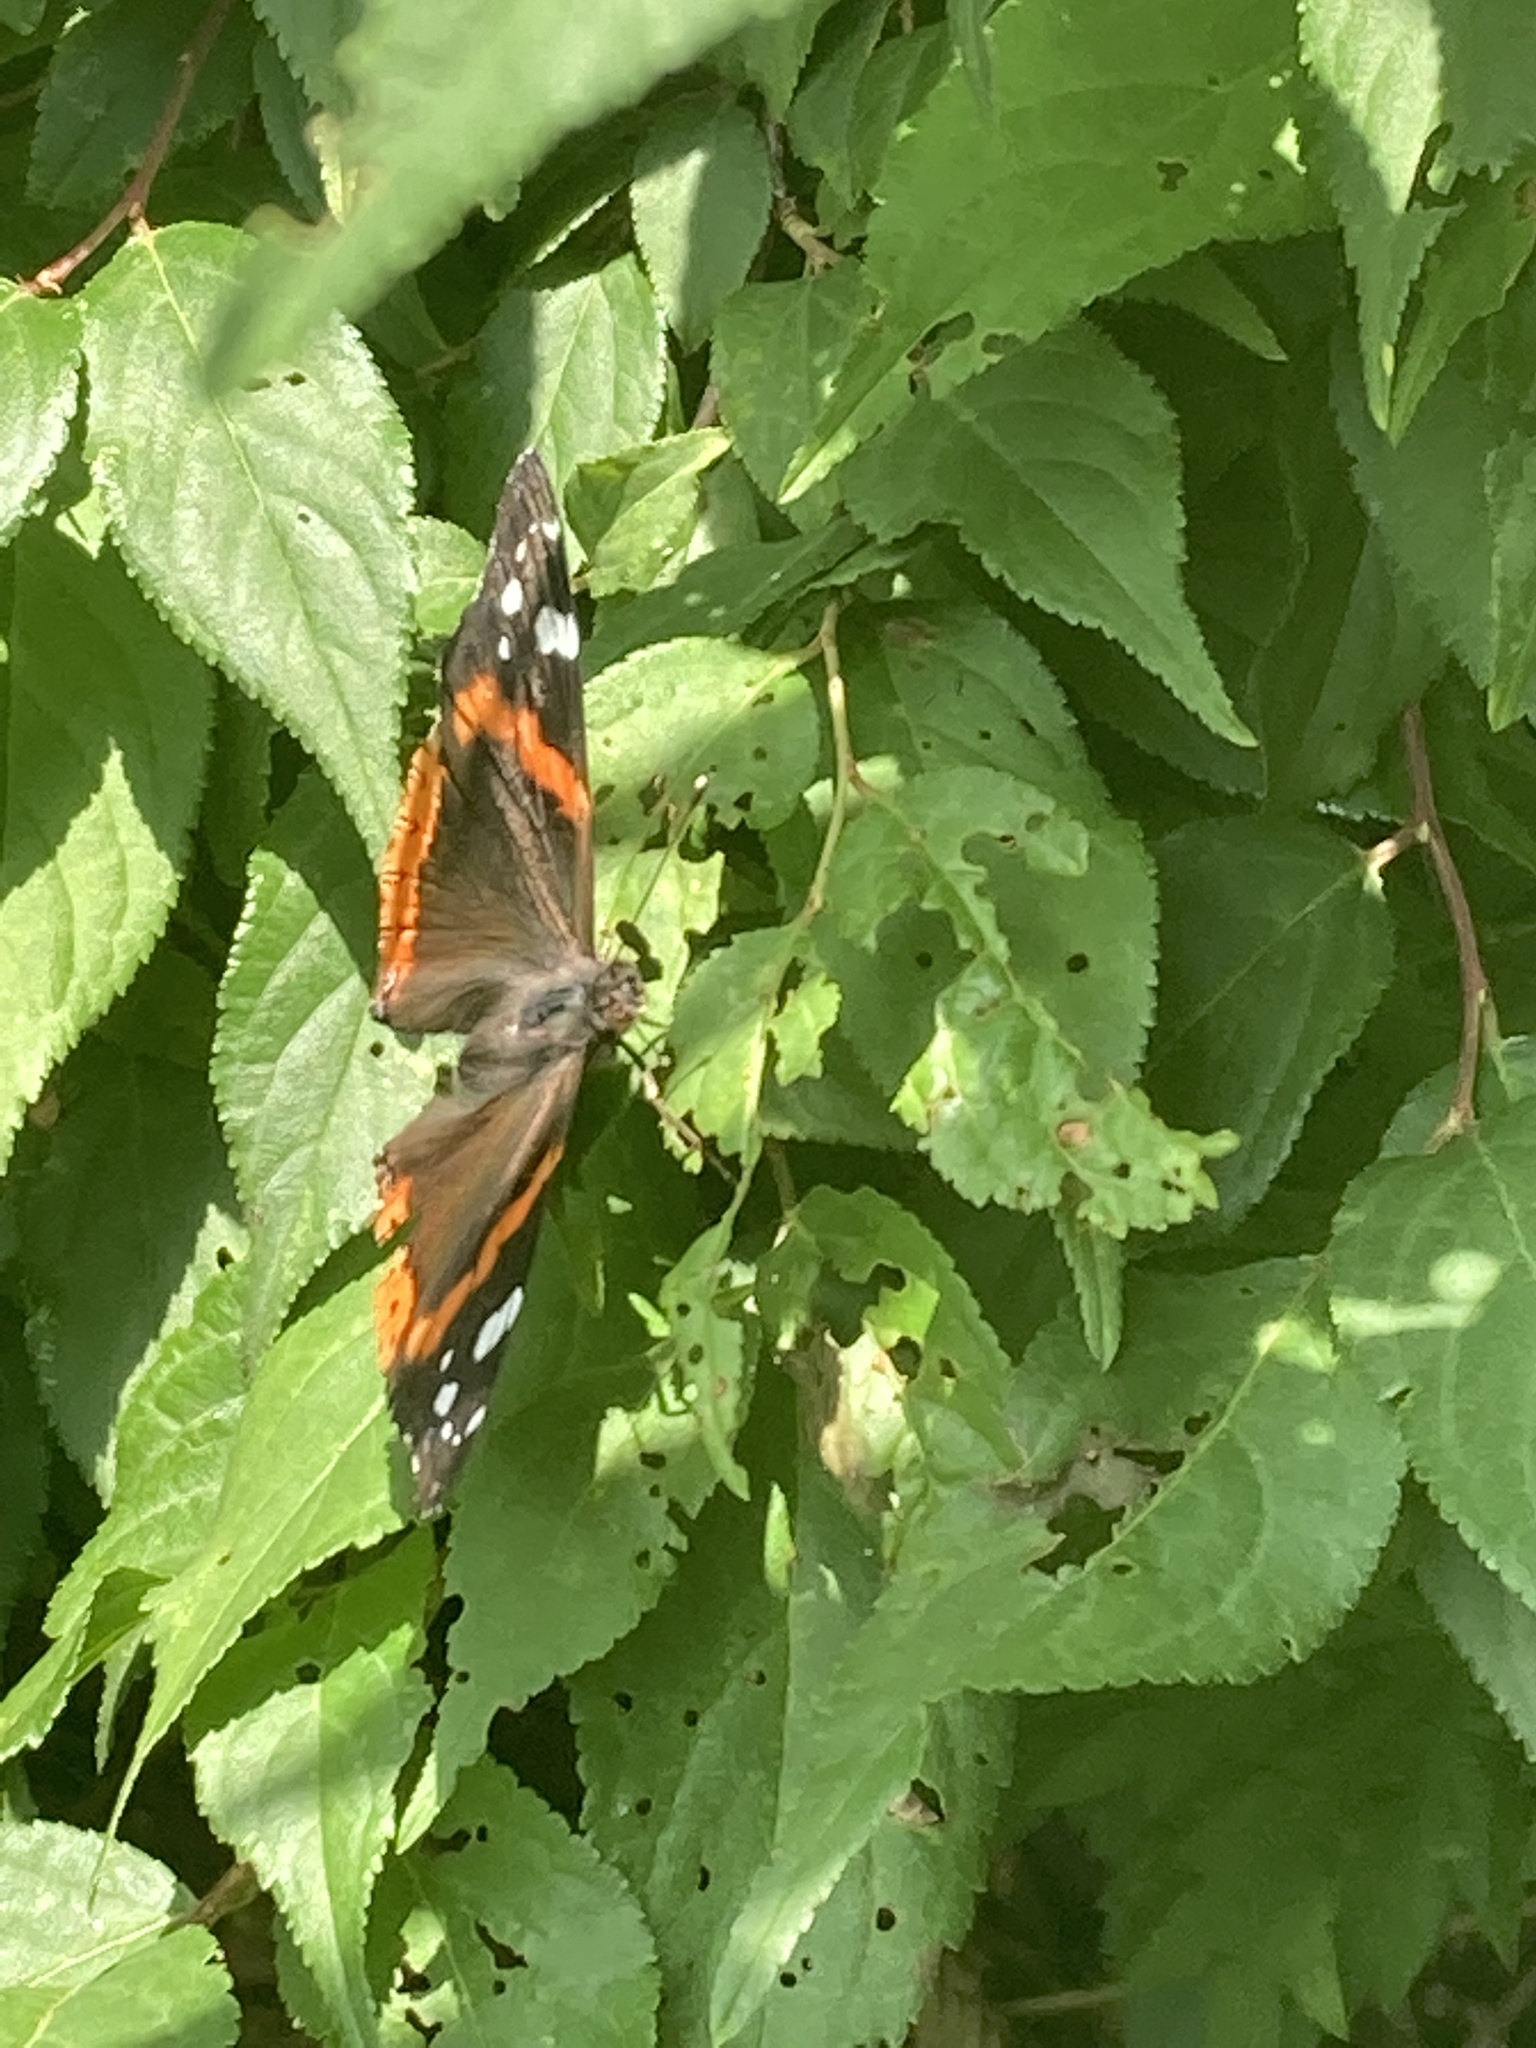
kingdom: Animalia
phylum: Arthropoda
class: Insecta
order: Lepidoptera
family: Nymphalidae
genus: Vanessa
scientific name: Vanessa atalanta
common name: Red admiral
